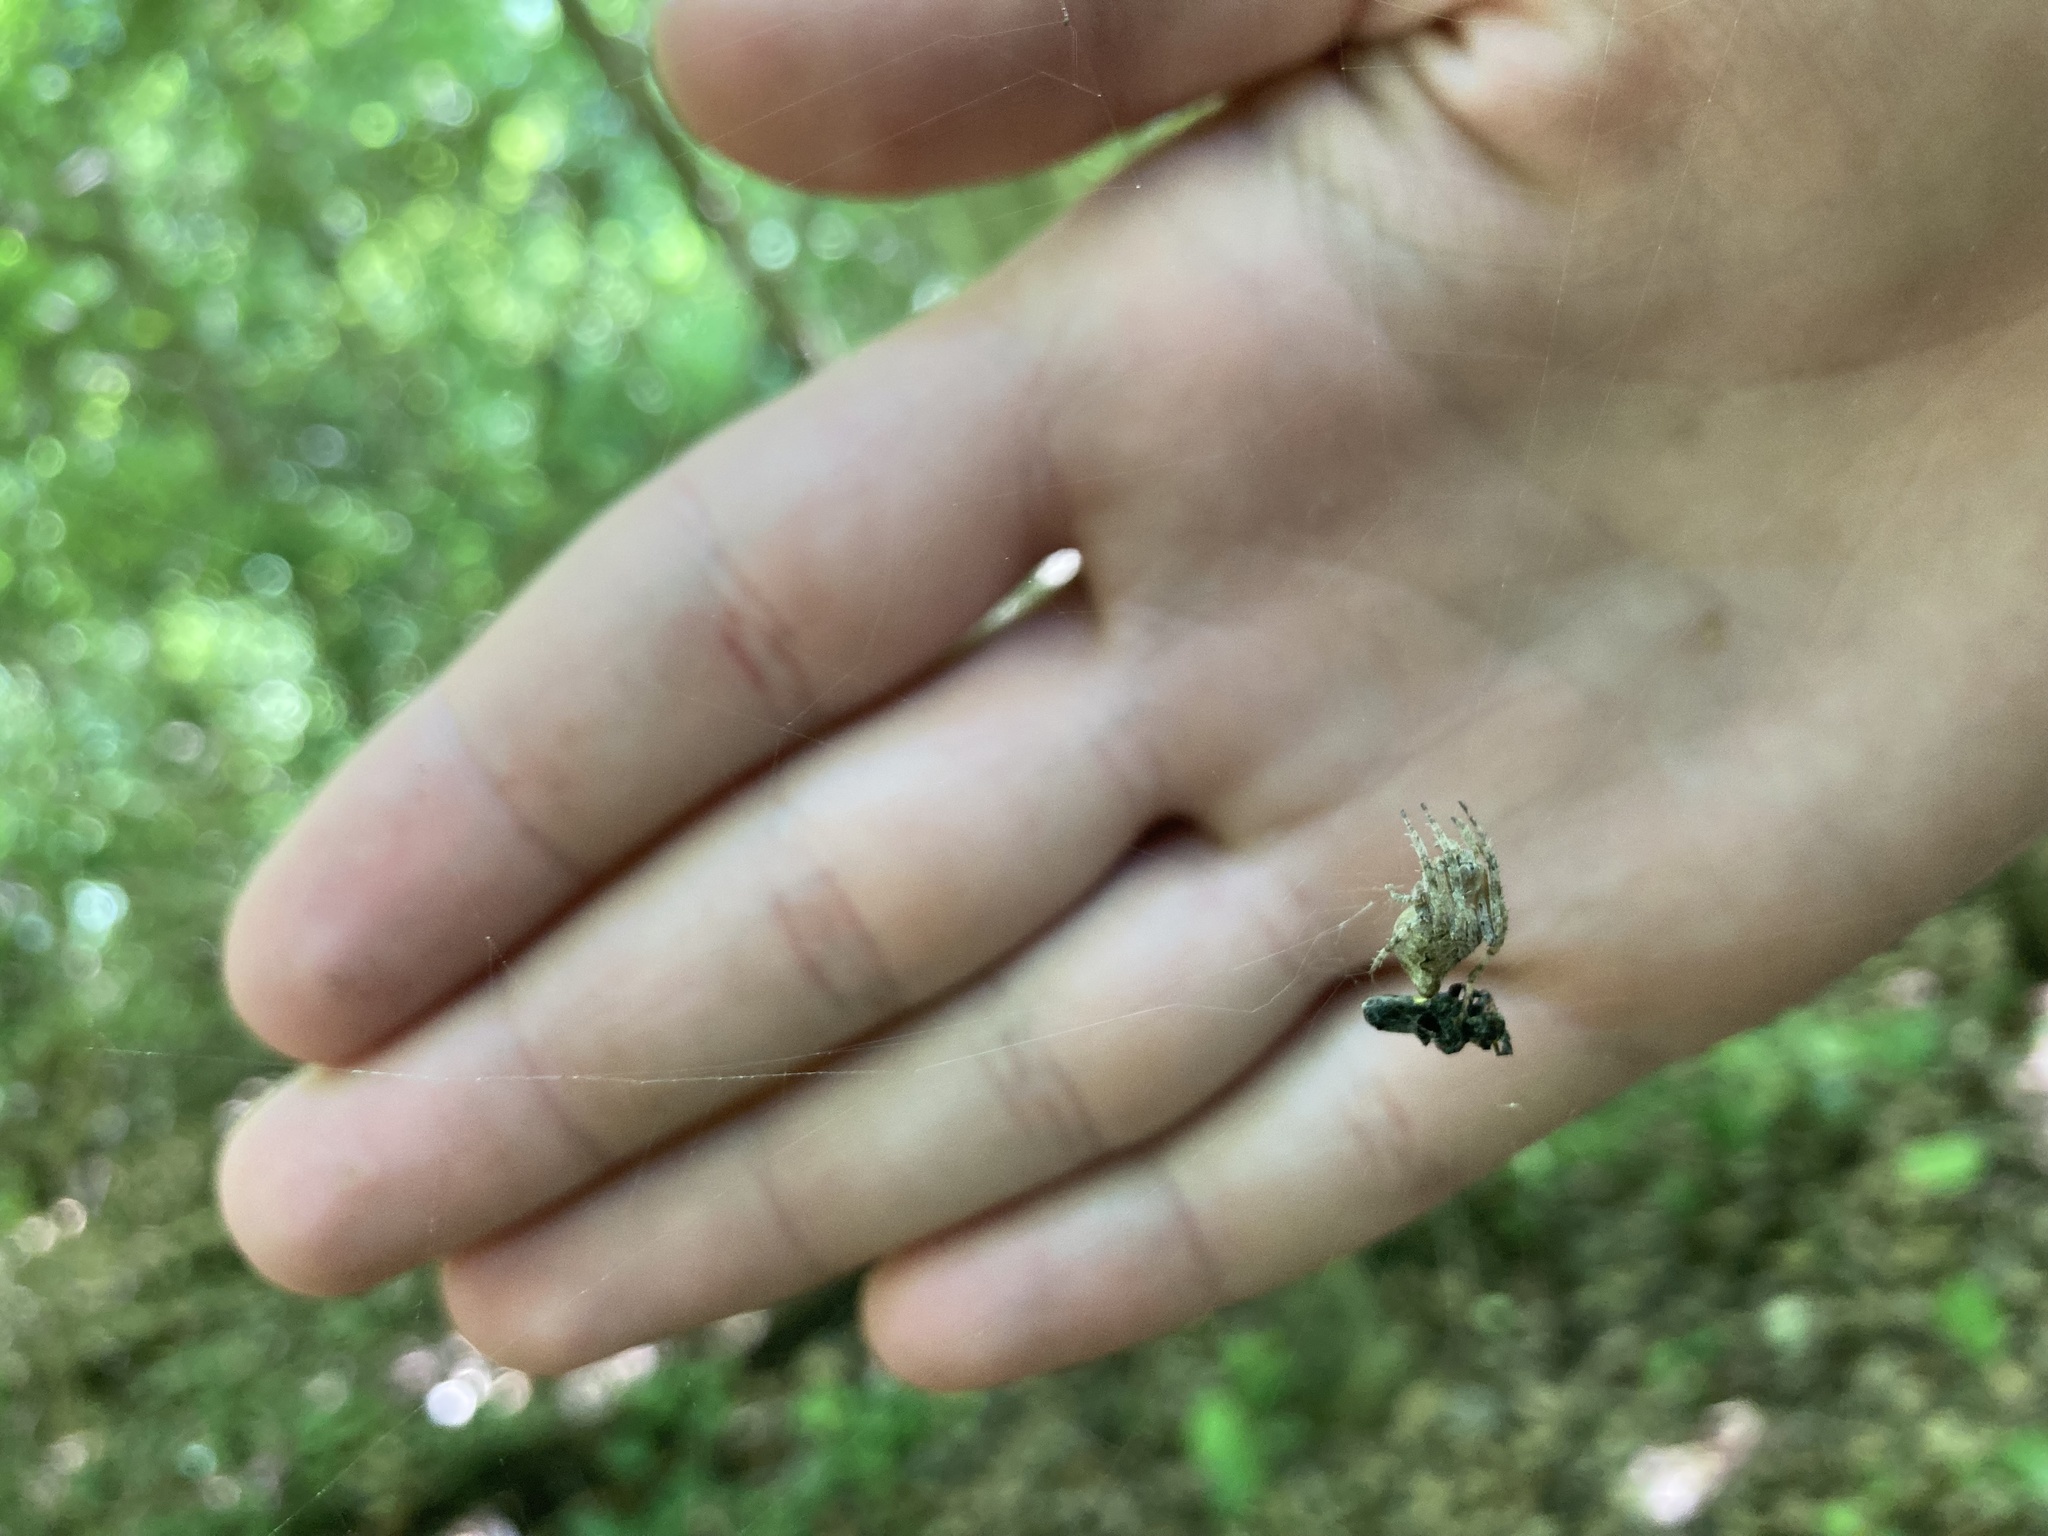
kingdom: Animalia
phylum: Arthropoda
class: Arachnida
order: Araneae
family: Araneidae
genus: Eustala
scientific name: Eustala anastera
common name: Orb weavers
